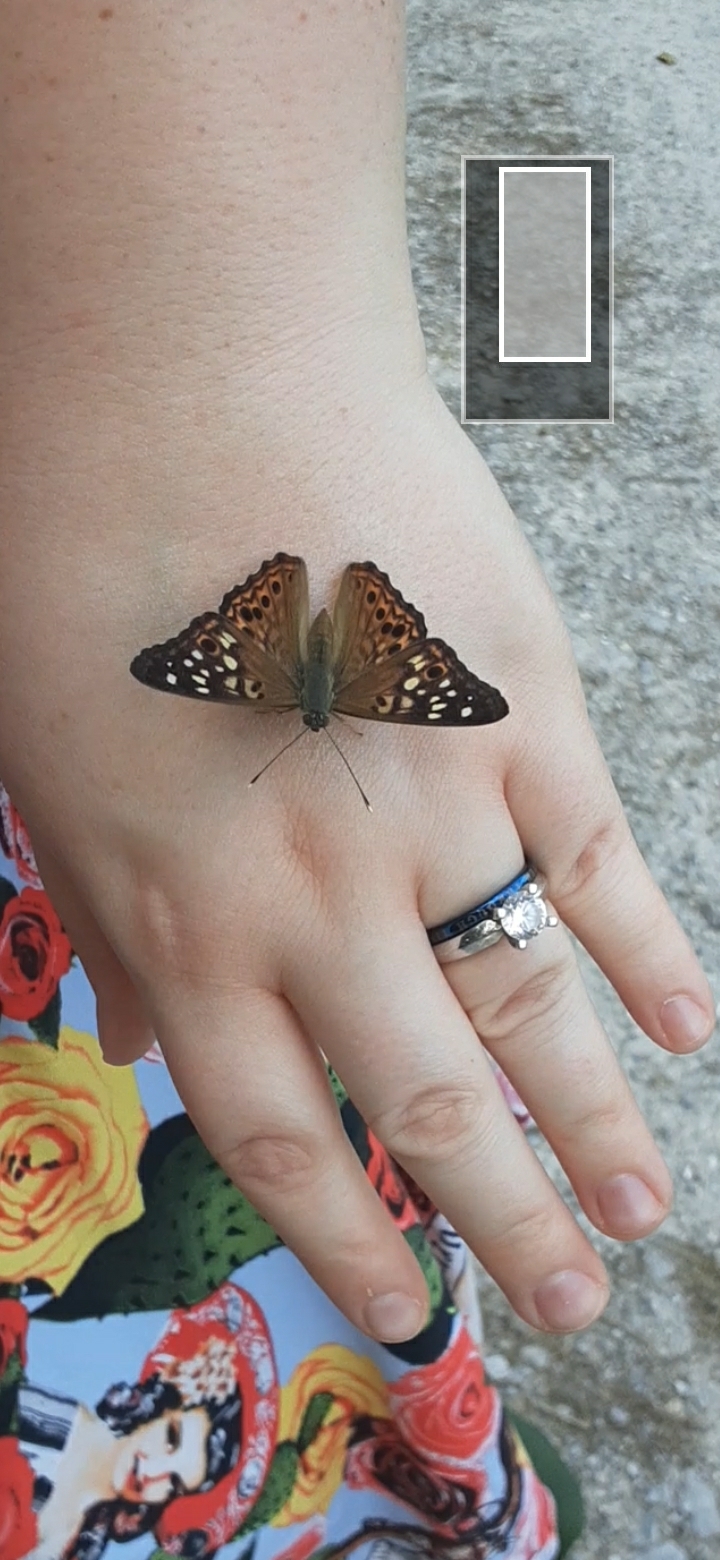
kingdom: Animalia
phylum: Arthropoda
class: Insecta
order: Lepidoptera
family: Nymphalidae
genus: Asterocampa
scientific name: Asterocampa celtis
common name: Hackberry emperor
